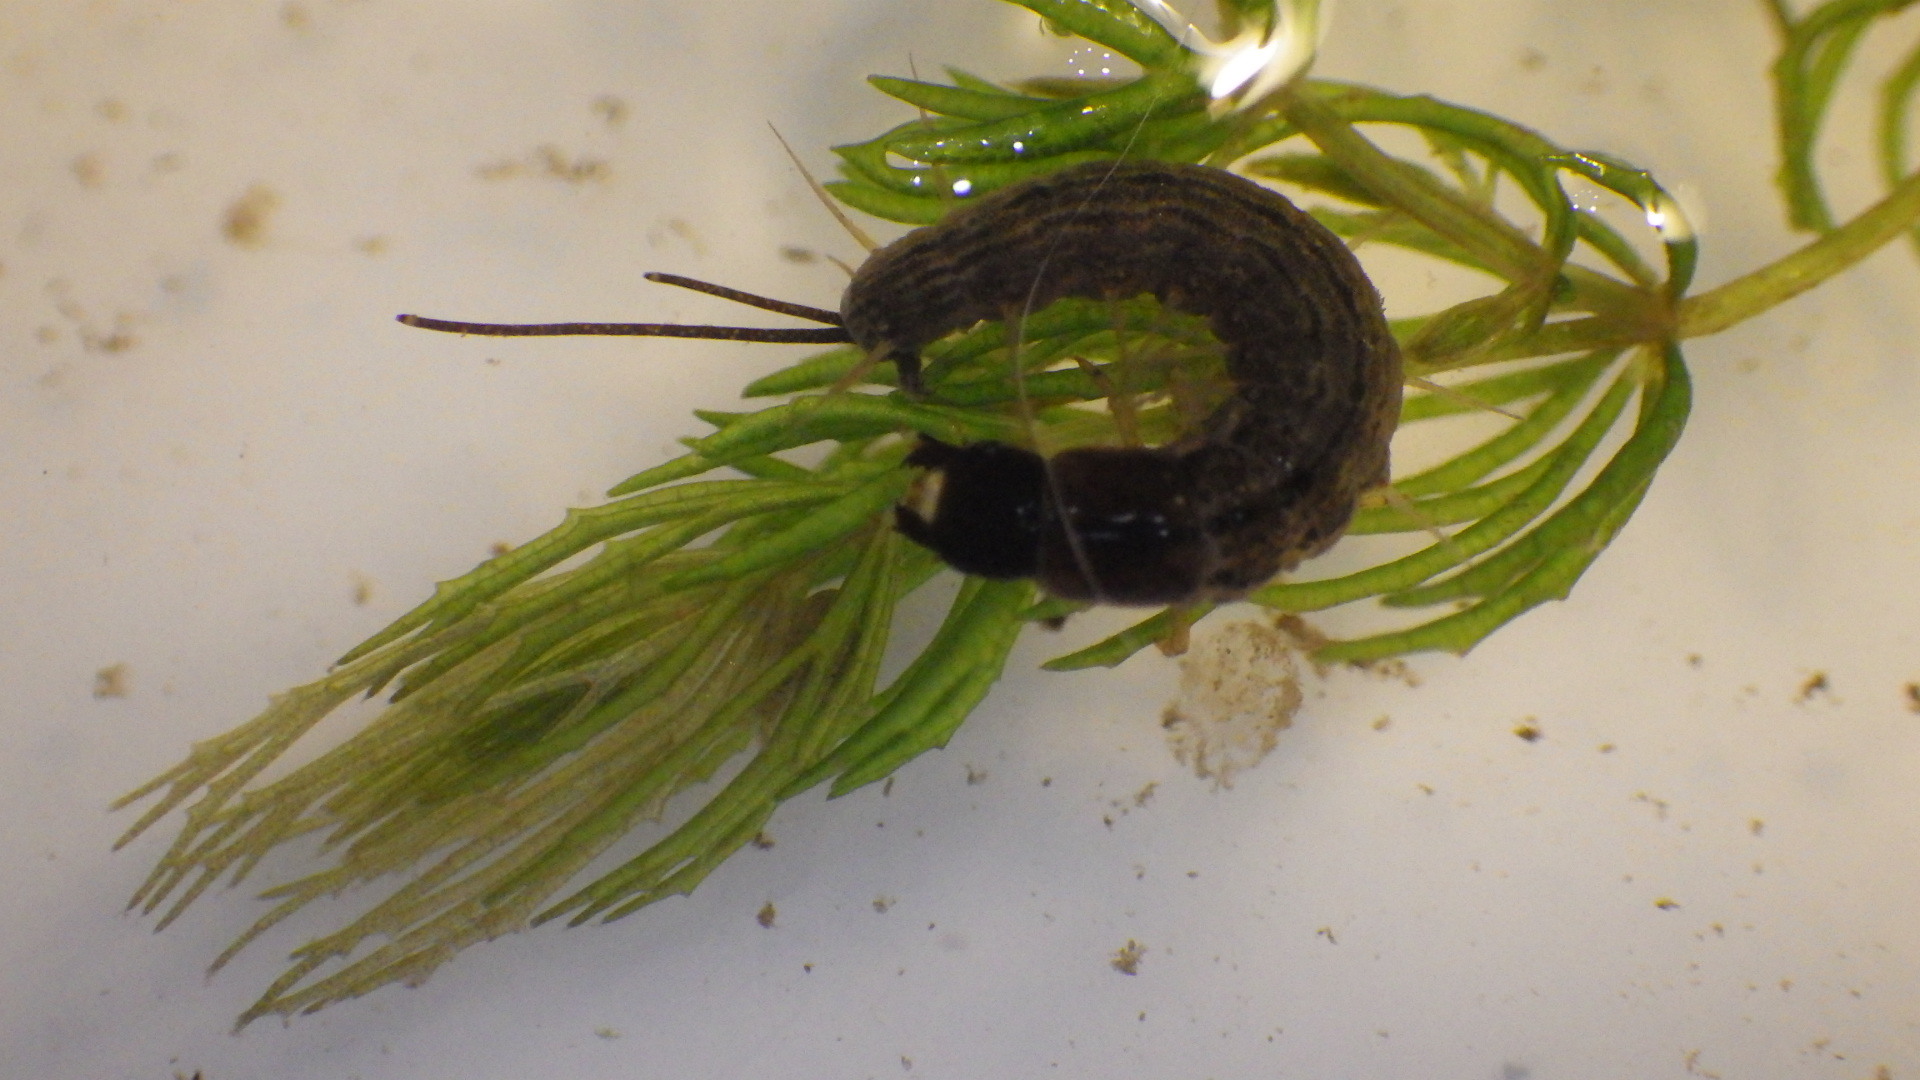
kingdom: Animalia
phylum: Arthropoda
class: Insecta
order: Megaloptera
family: Corydalidae
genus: Chauliodes
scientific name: Chauliodes rastricornis
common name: Spring fishfly
